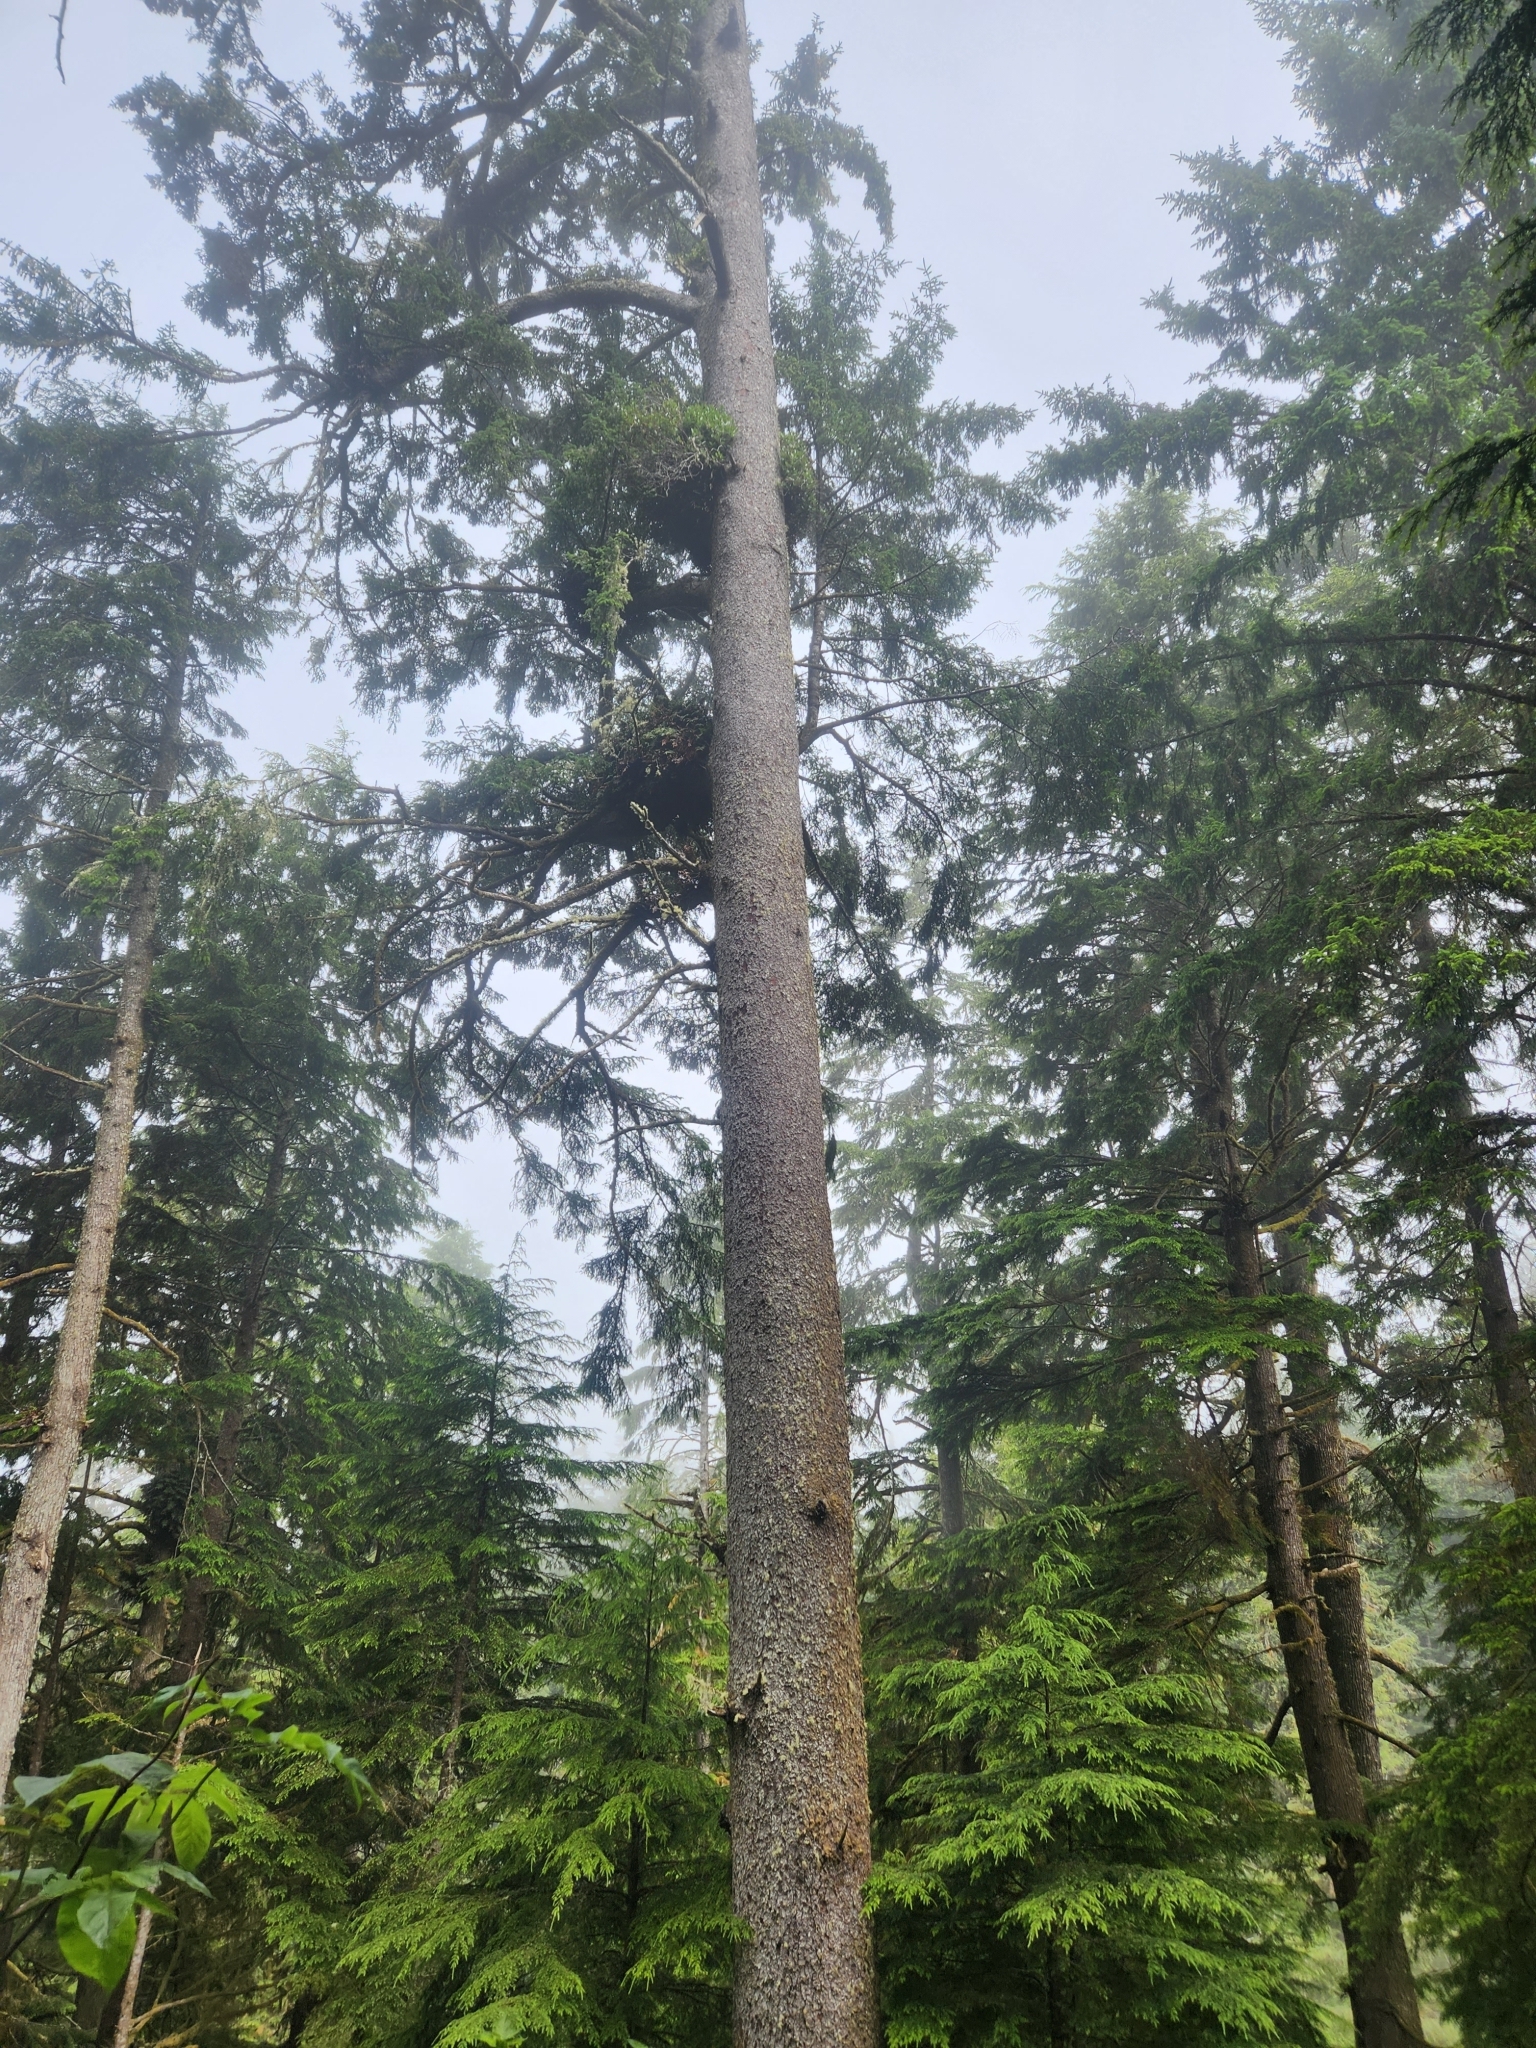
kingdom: Plantae
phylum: Tracheophyta
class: Pinopsida
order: Pinales
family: Pinaceae
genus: Picea
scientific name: Picea sitchensis
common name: Sitka spruce
